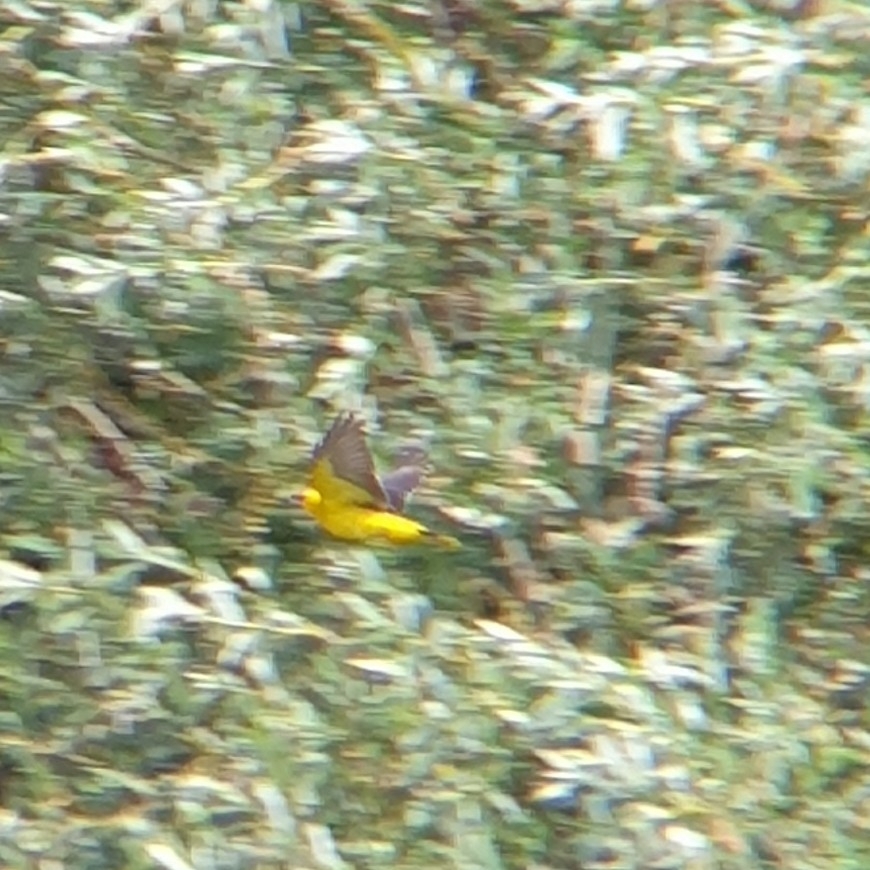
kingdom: Animalia
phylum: Chordata
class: Aves
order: Passeriformes
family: Oriolidae
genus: Oriolus
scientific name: Oriolus oriolus
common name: Eurasian golden oriole
